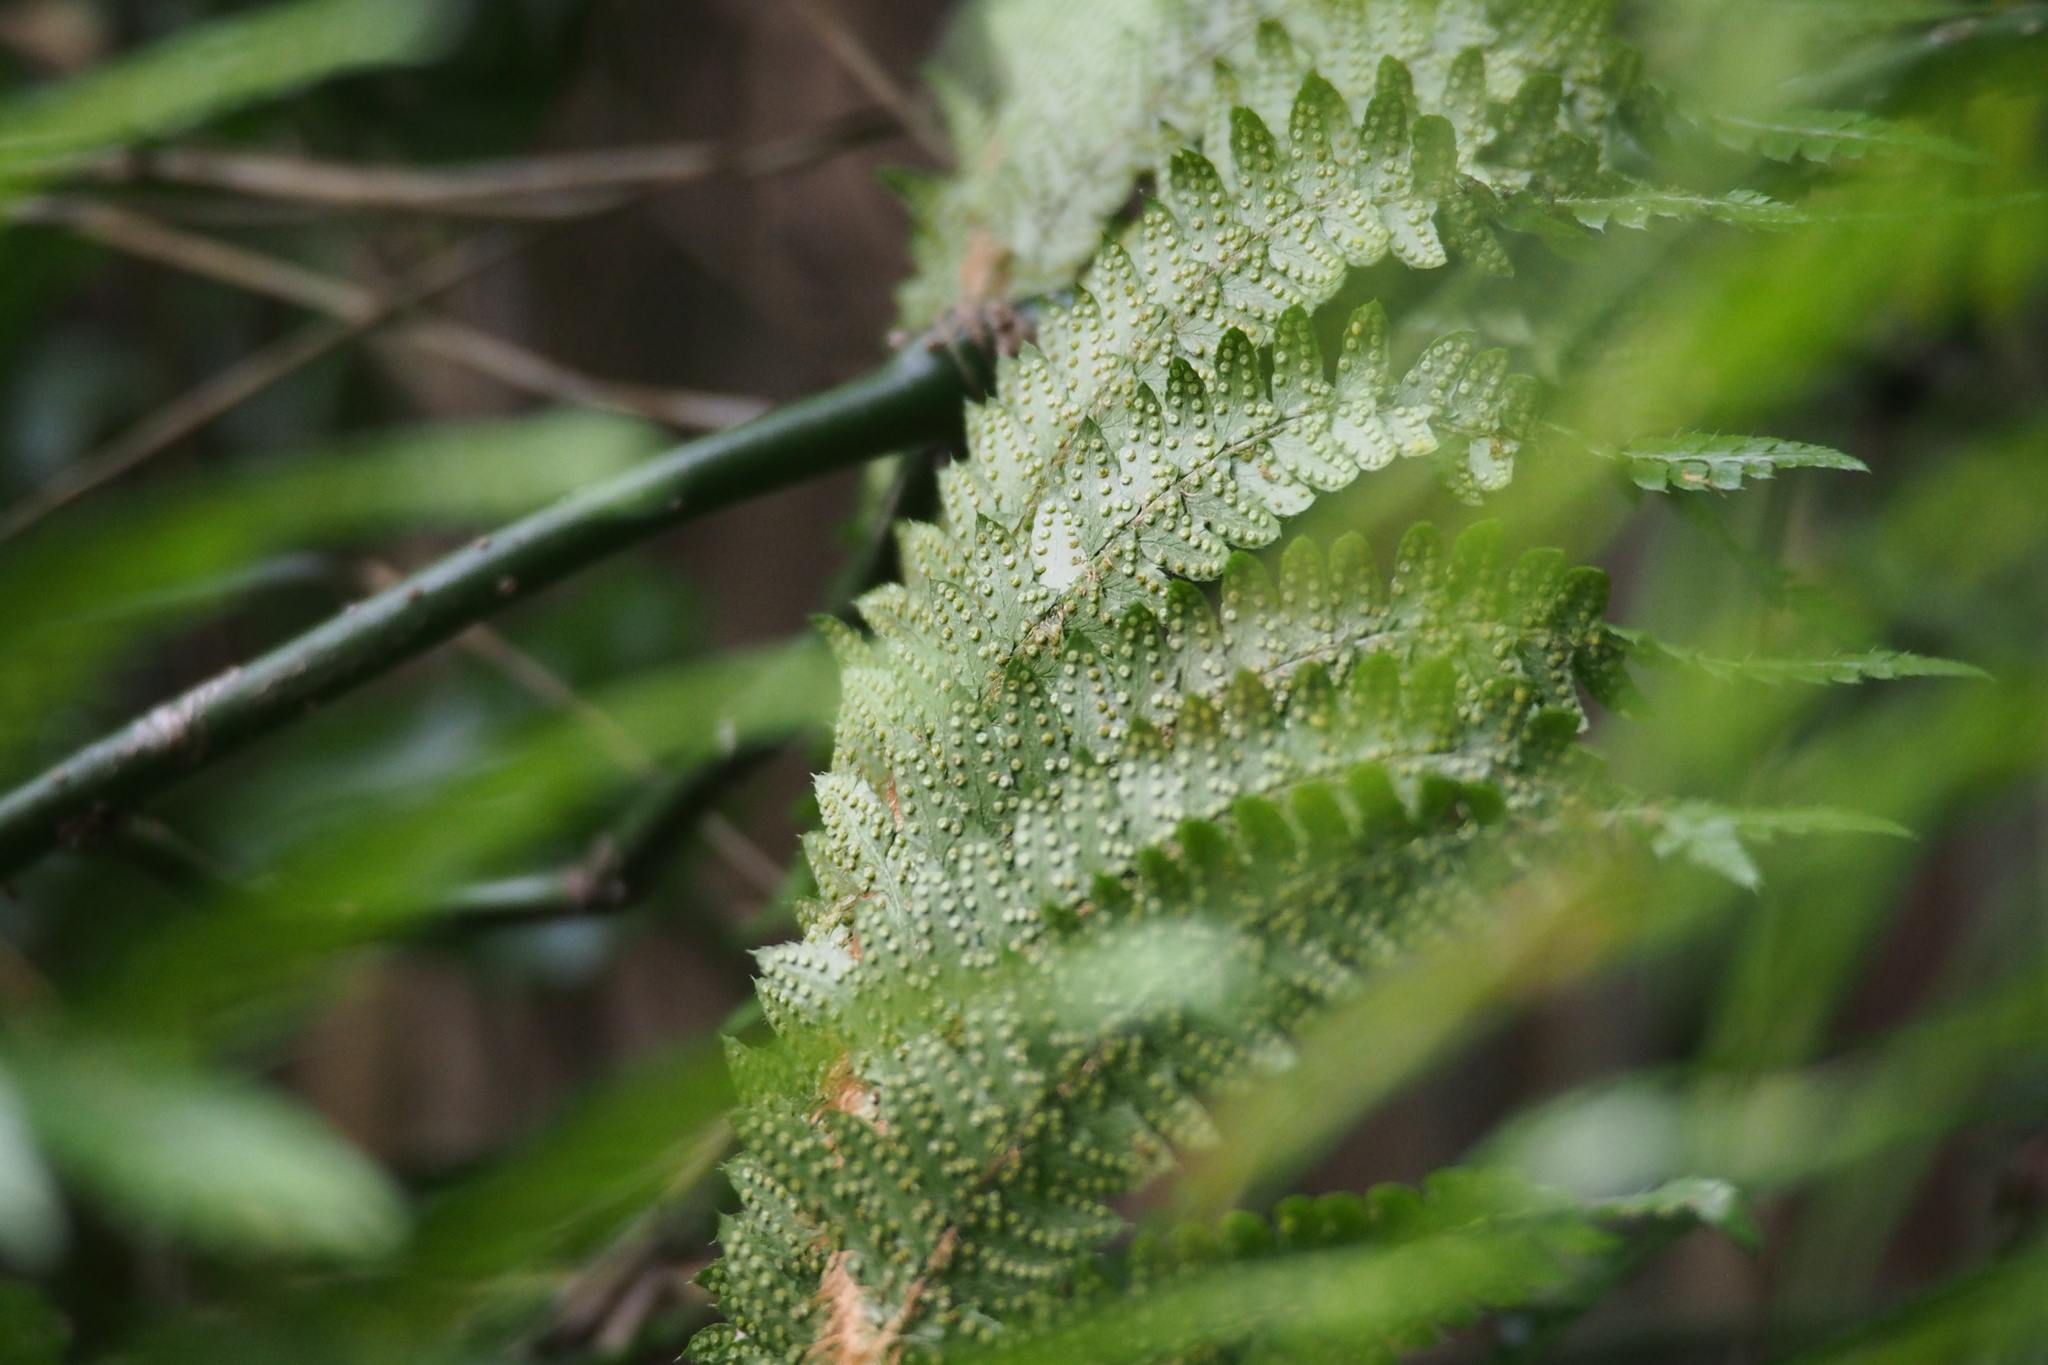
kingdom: Plantae
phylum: Tracheophyta
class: Polypodiopsida
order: Polypodiales
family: Dryopteridaceae
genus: Polystichum
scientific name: Polystichum longifrons
